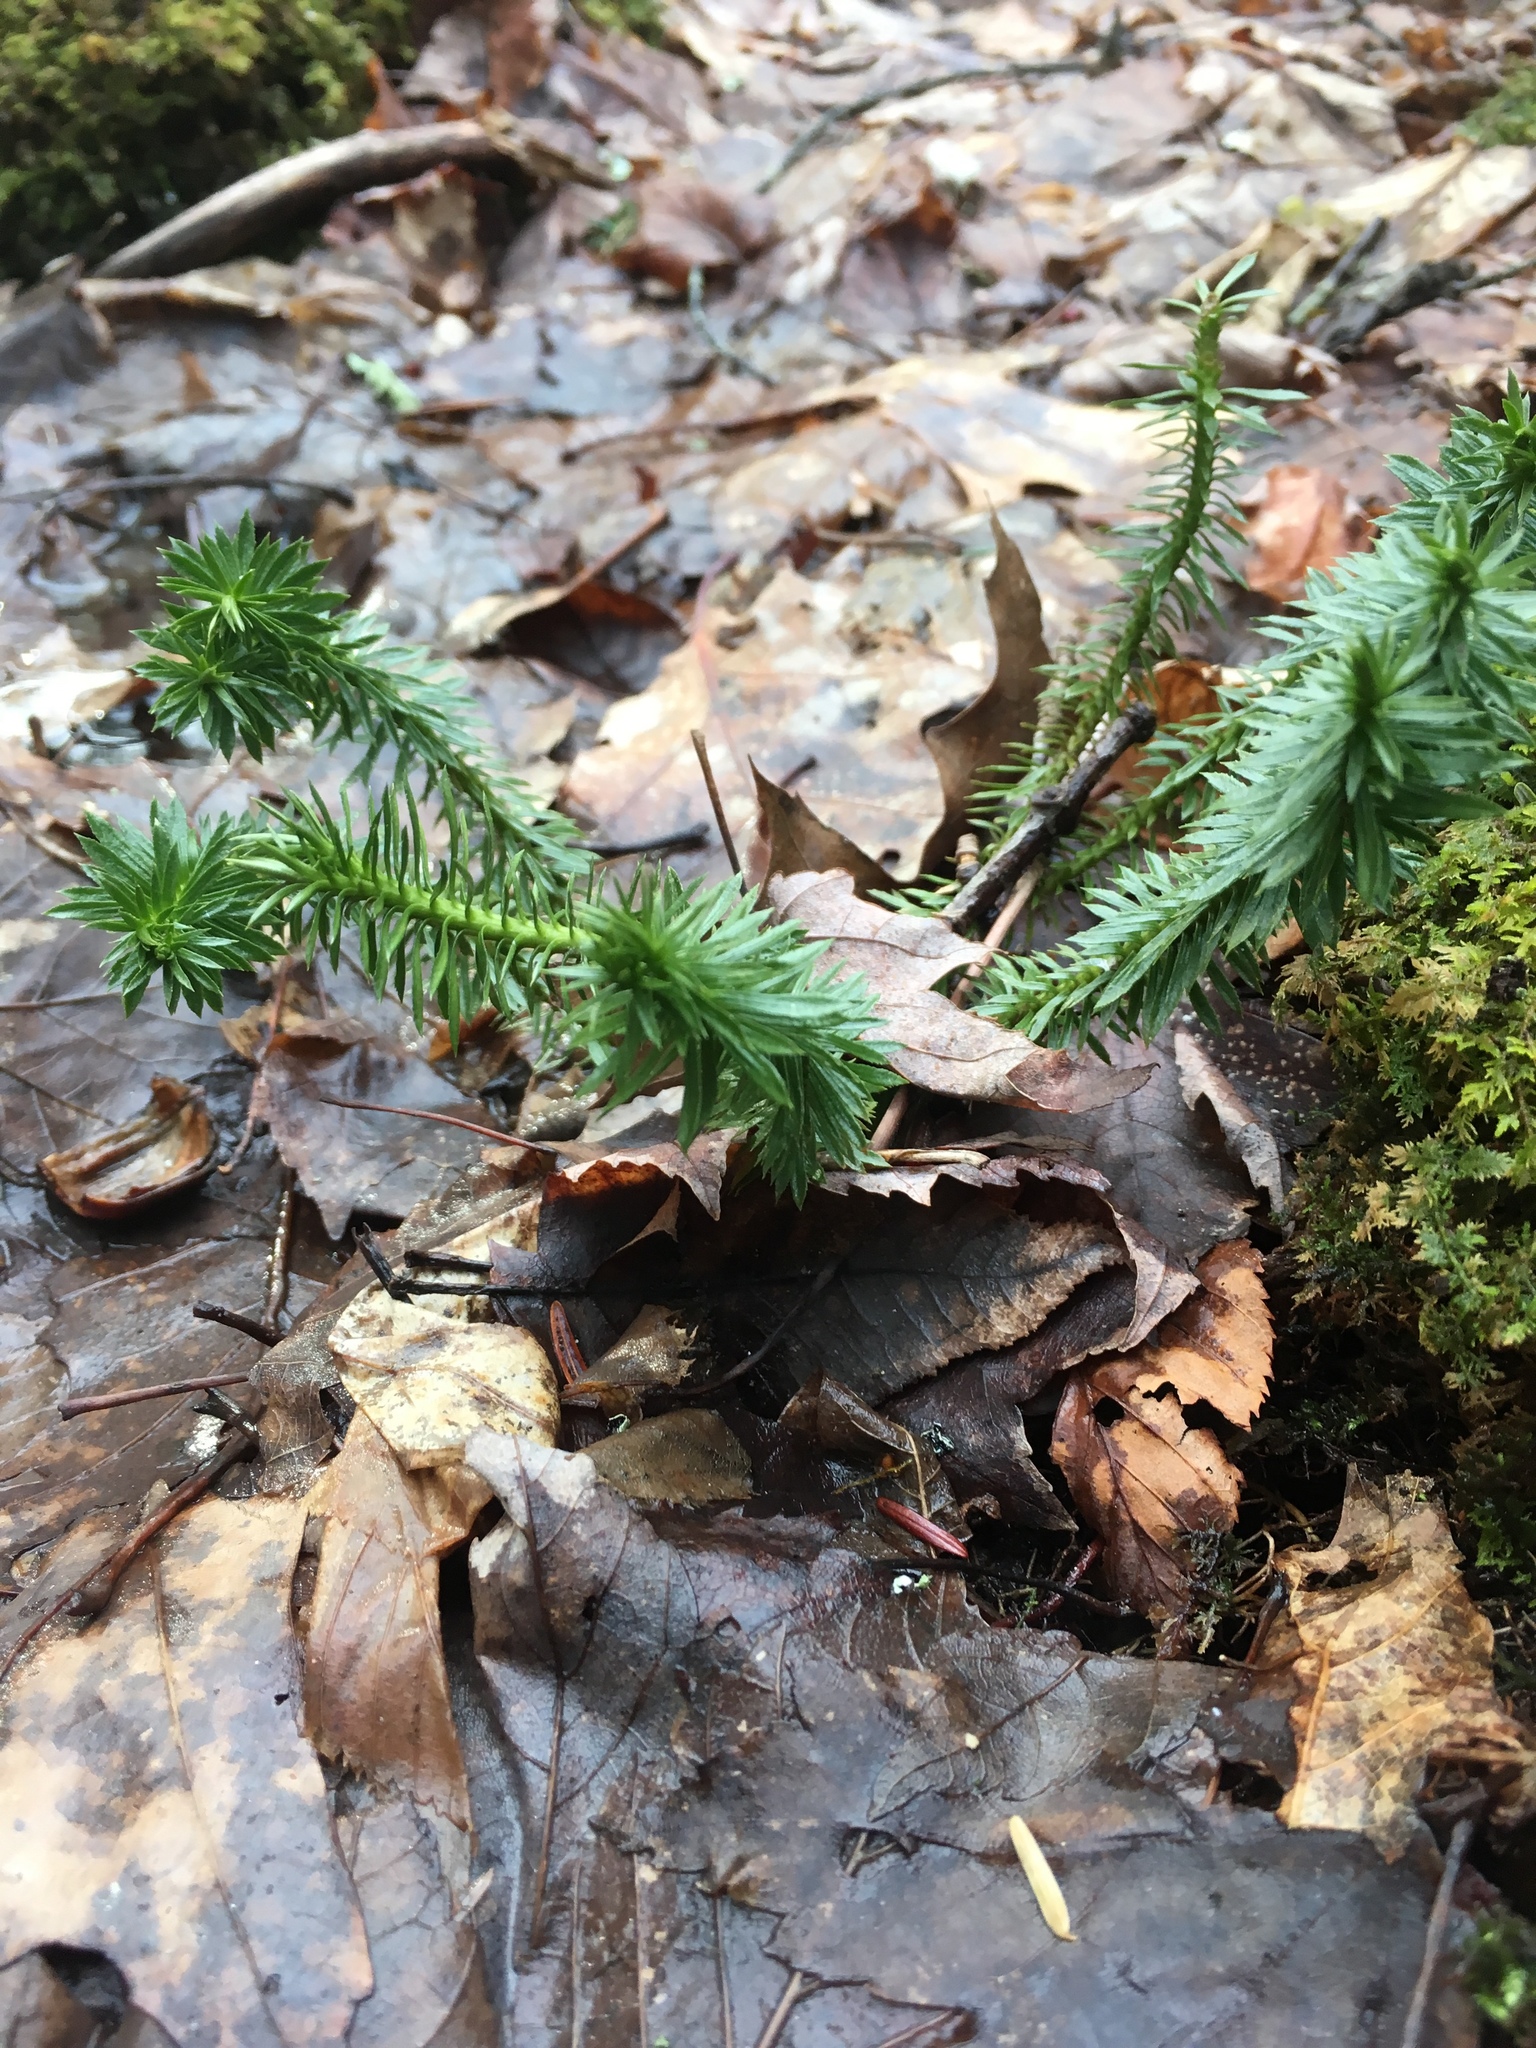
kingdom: Plantae
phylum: Tracheophyta
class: Lycopodiopsida
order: Lycopodiales
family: Lycopodiaceae
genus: Huperzia
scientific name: Huperzia lucidula
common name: Shining clubmoss
